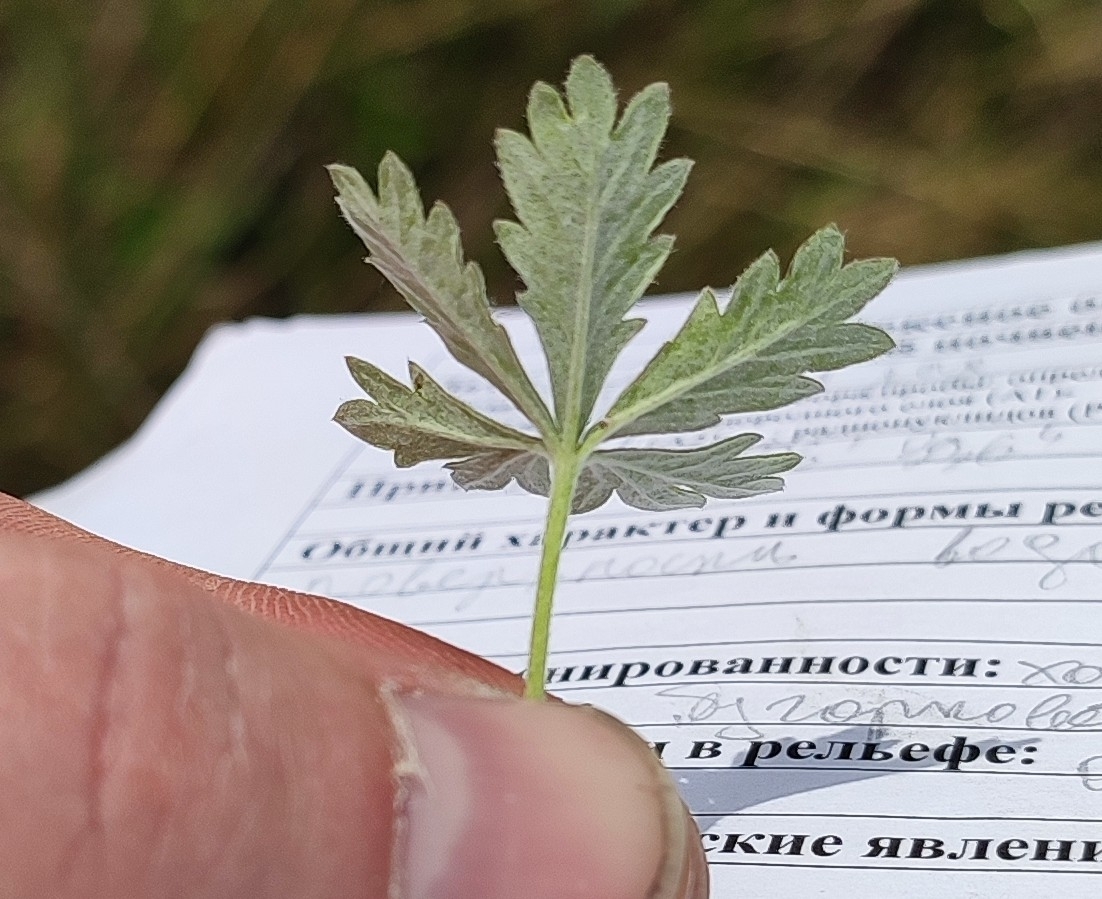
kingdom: Plantae
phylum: Tracheophyta
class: Magnoliopsida
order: Rosales
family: Rosaceae
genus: Potentilla
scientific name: Potentilla argentea
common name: Hoary cinquefoil
